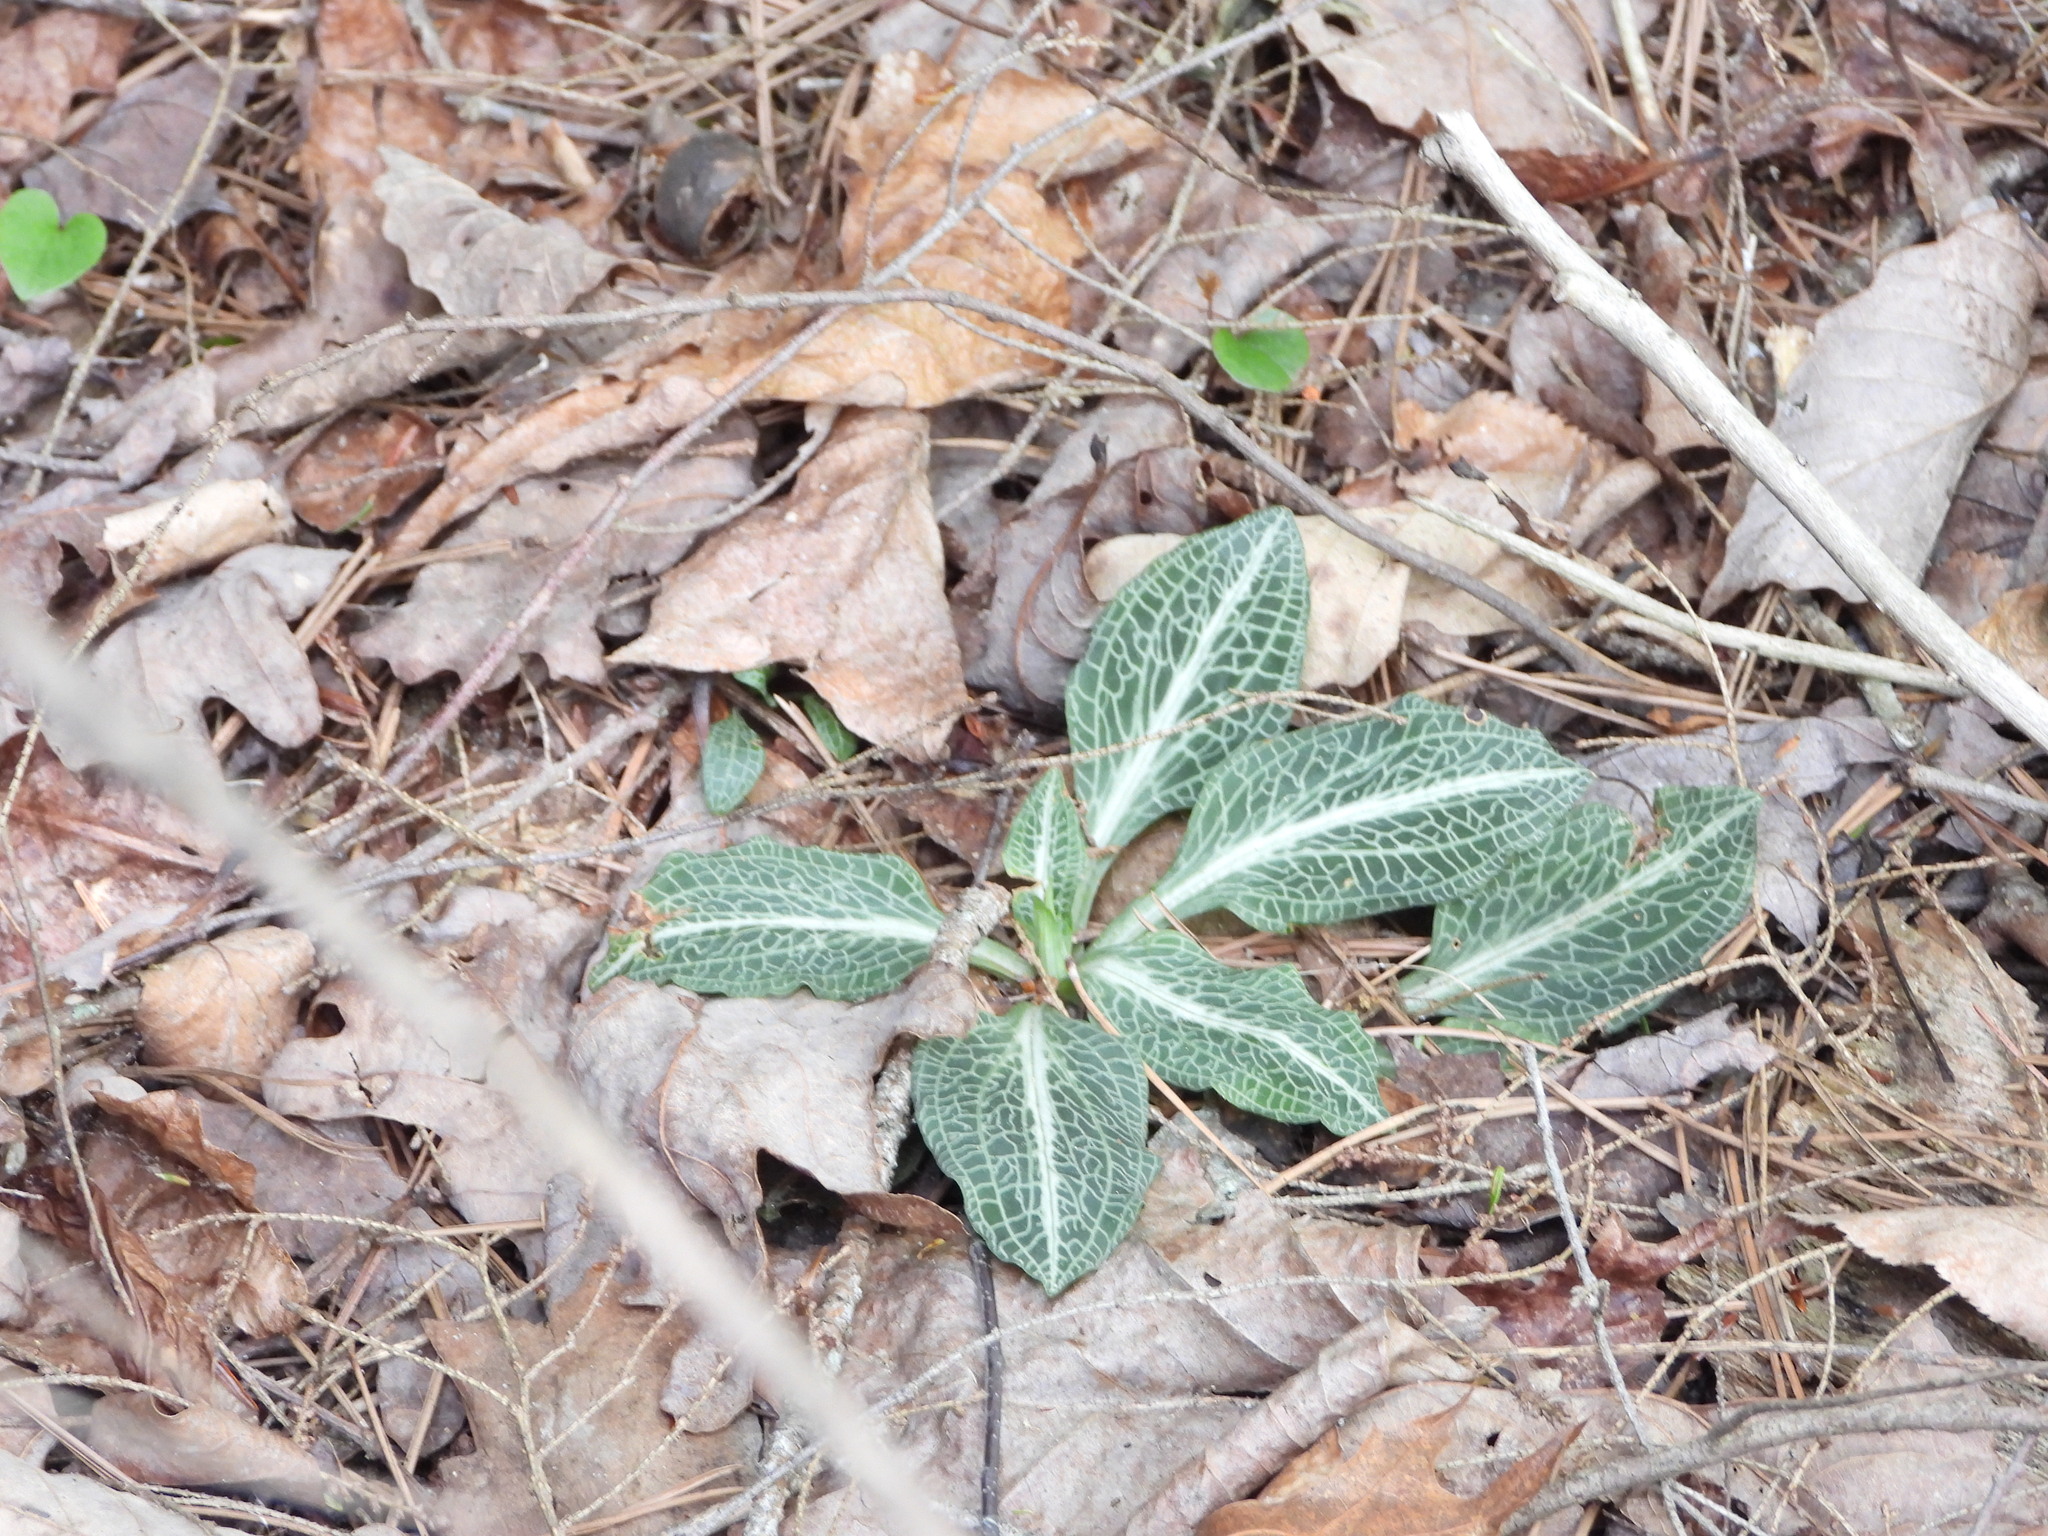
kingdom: Plantae
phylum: Tracheophyta
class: Liliopsida
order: Asparagales
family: Orchidaceae
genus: Goodyera
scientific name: Goodyera pubescens
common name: Downy rattlesnake-plantain
